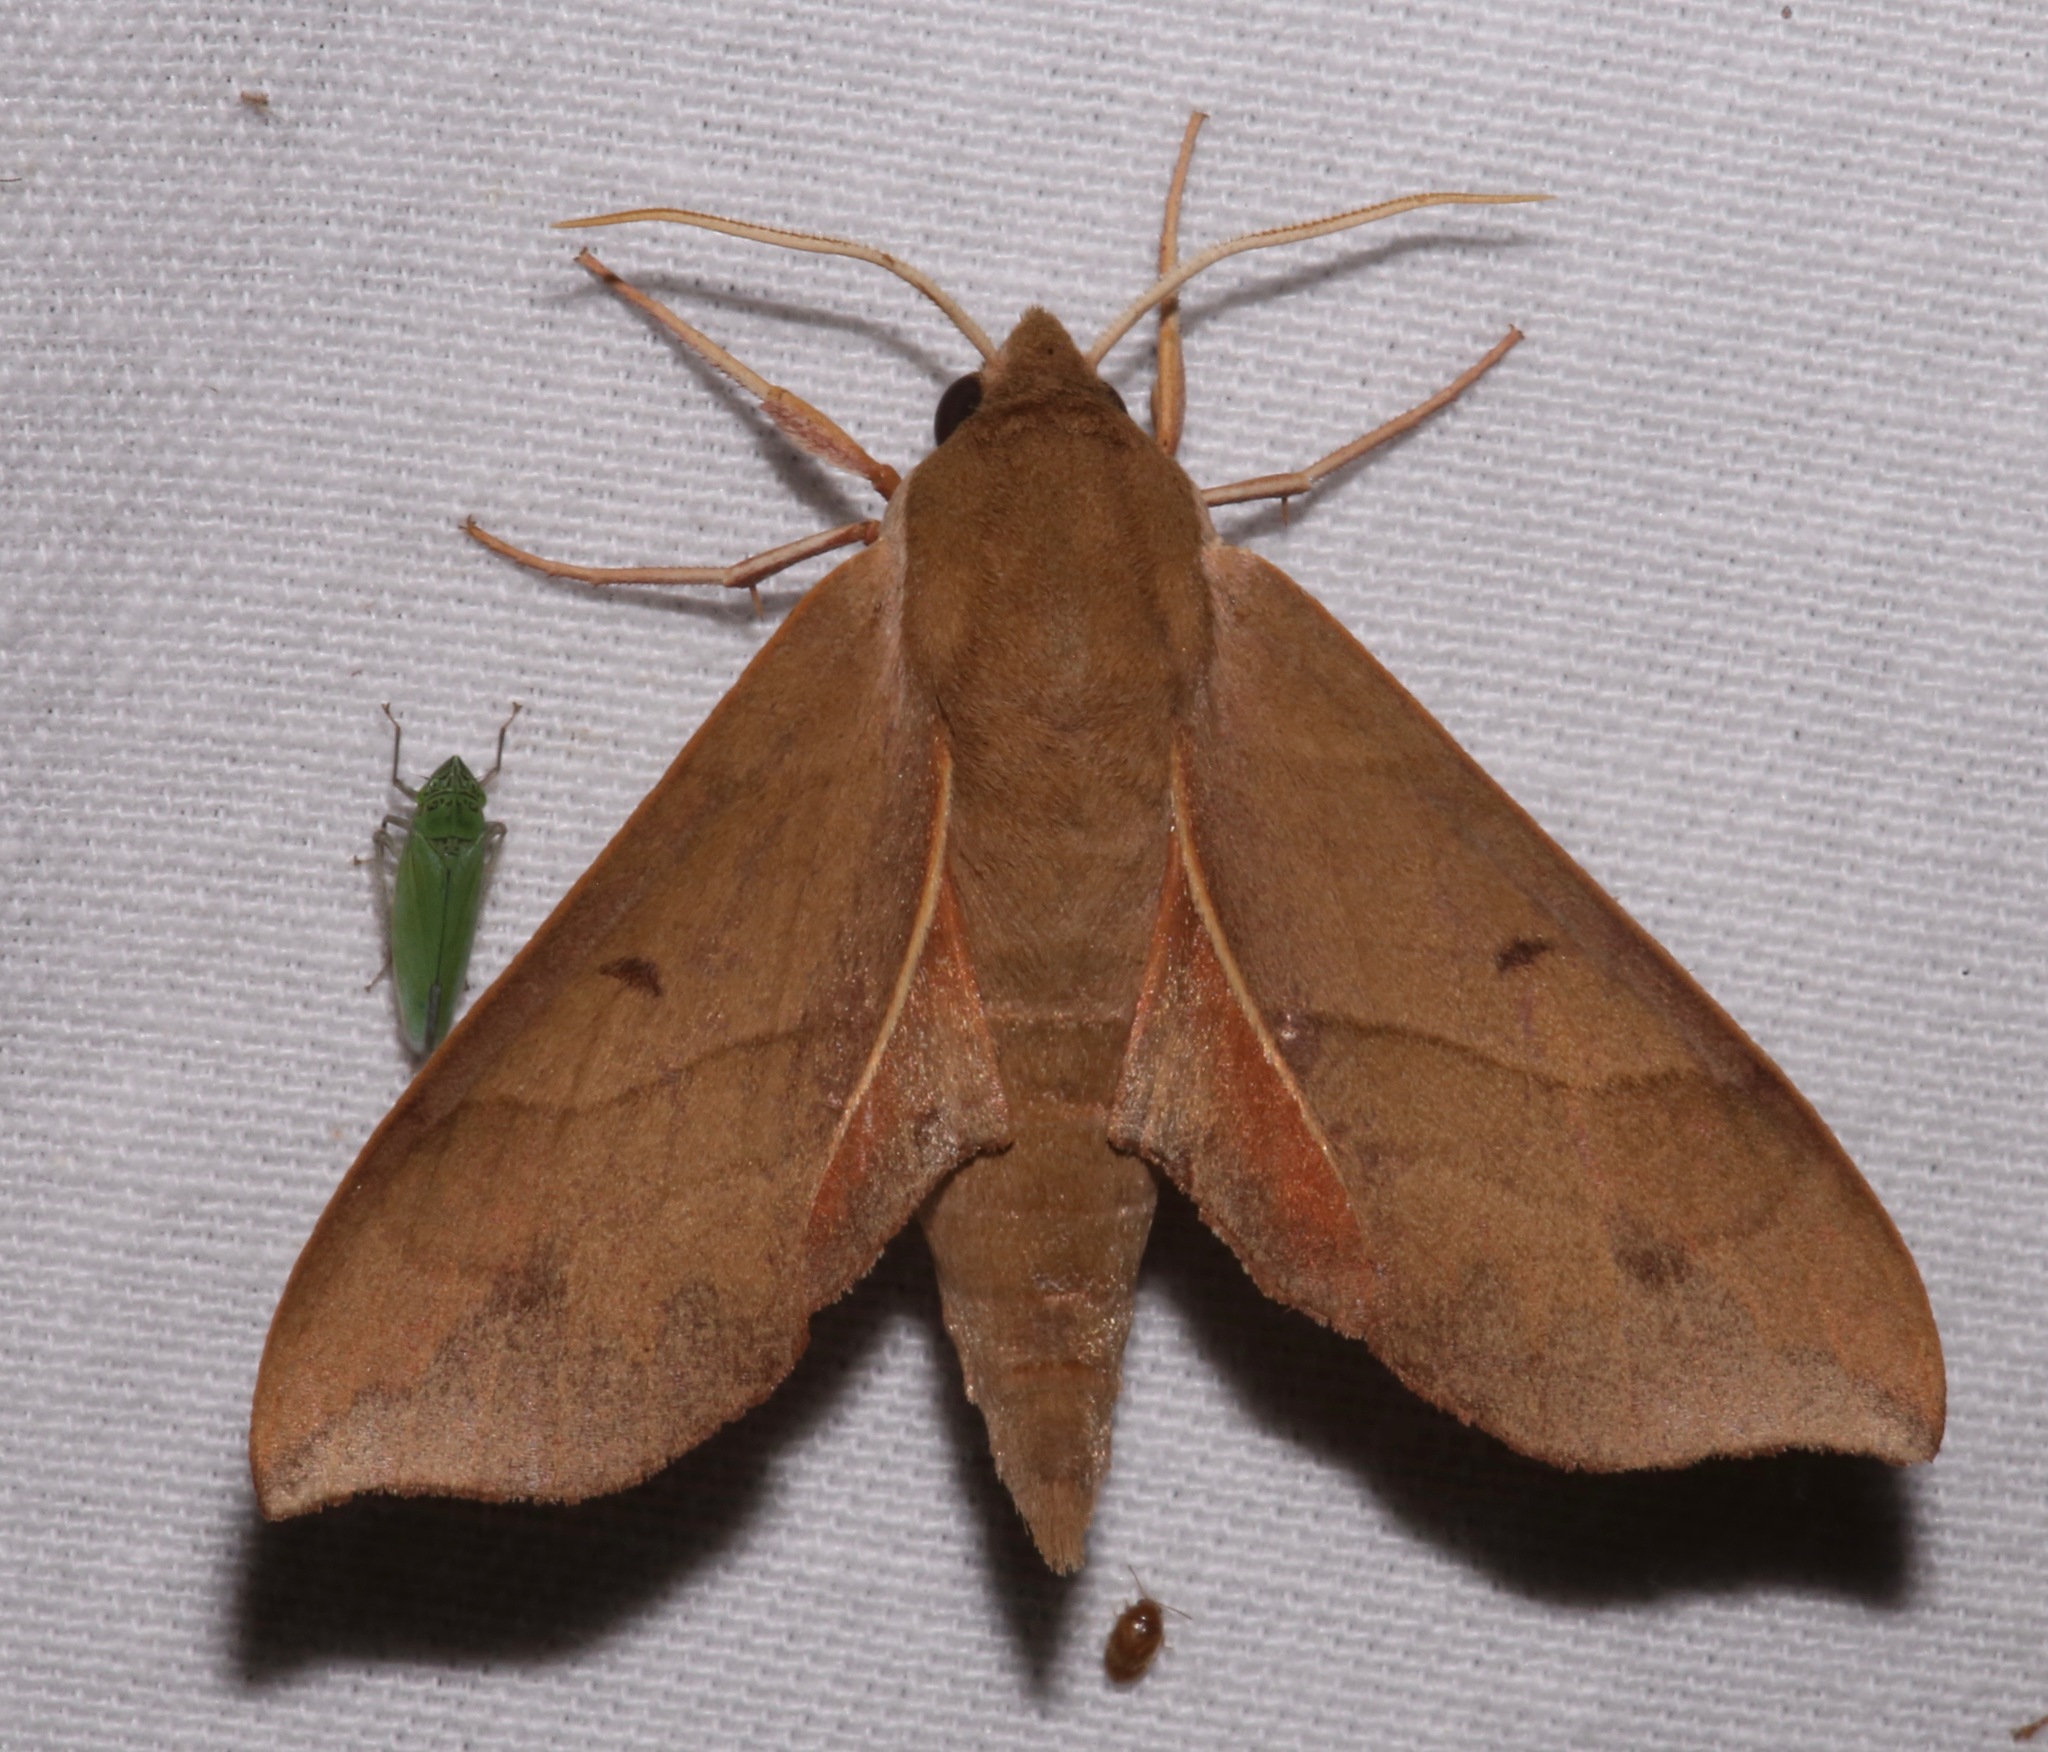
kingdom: Animalia
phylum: Arthropoda
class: Insecta
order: Lepidoptera
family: Sphingidae
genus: Darapsa
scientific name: Darapsa myron
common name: Hog sphinx
